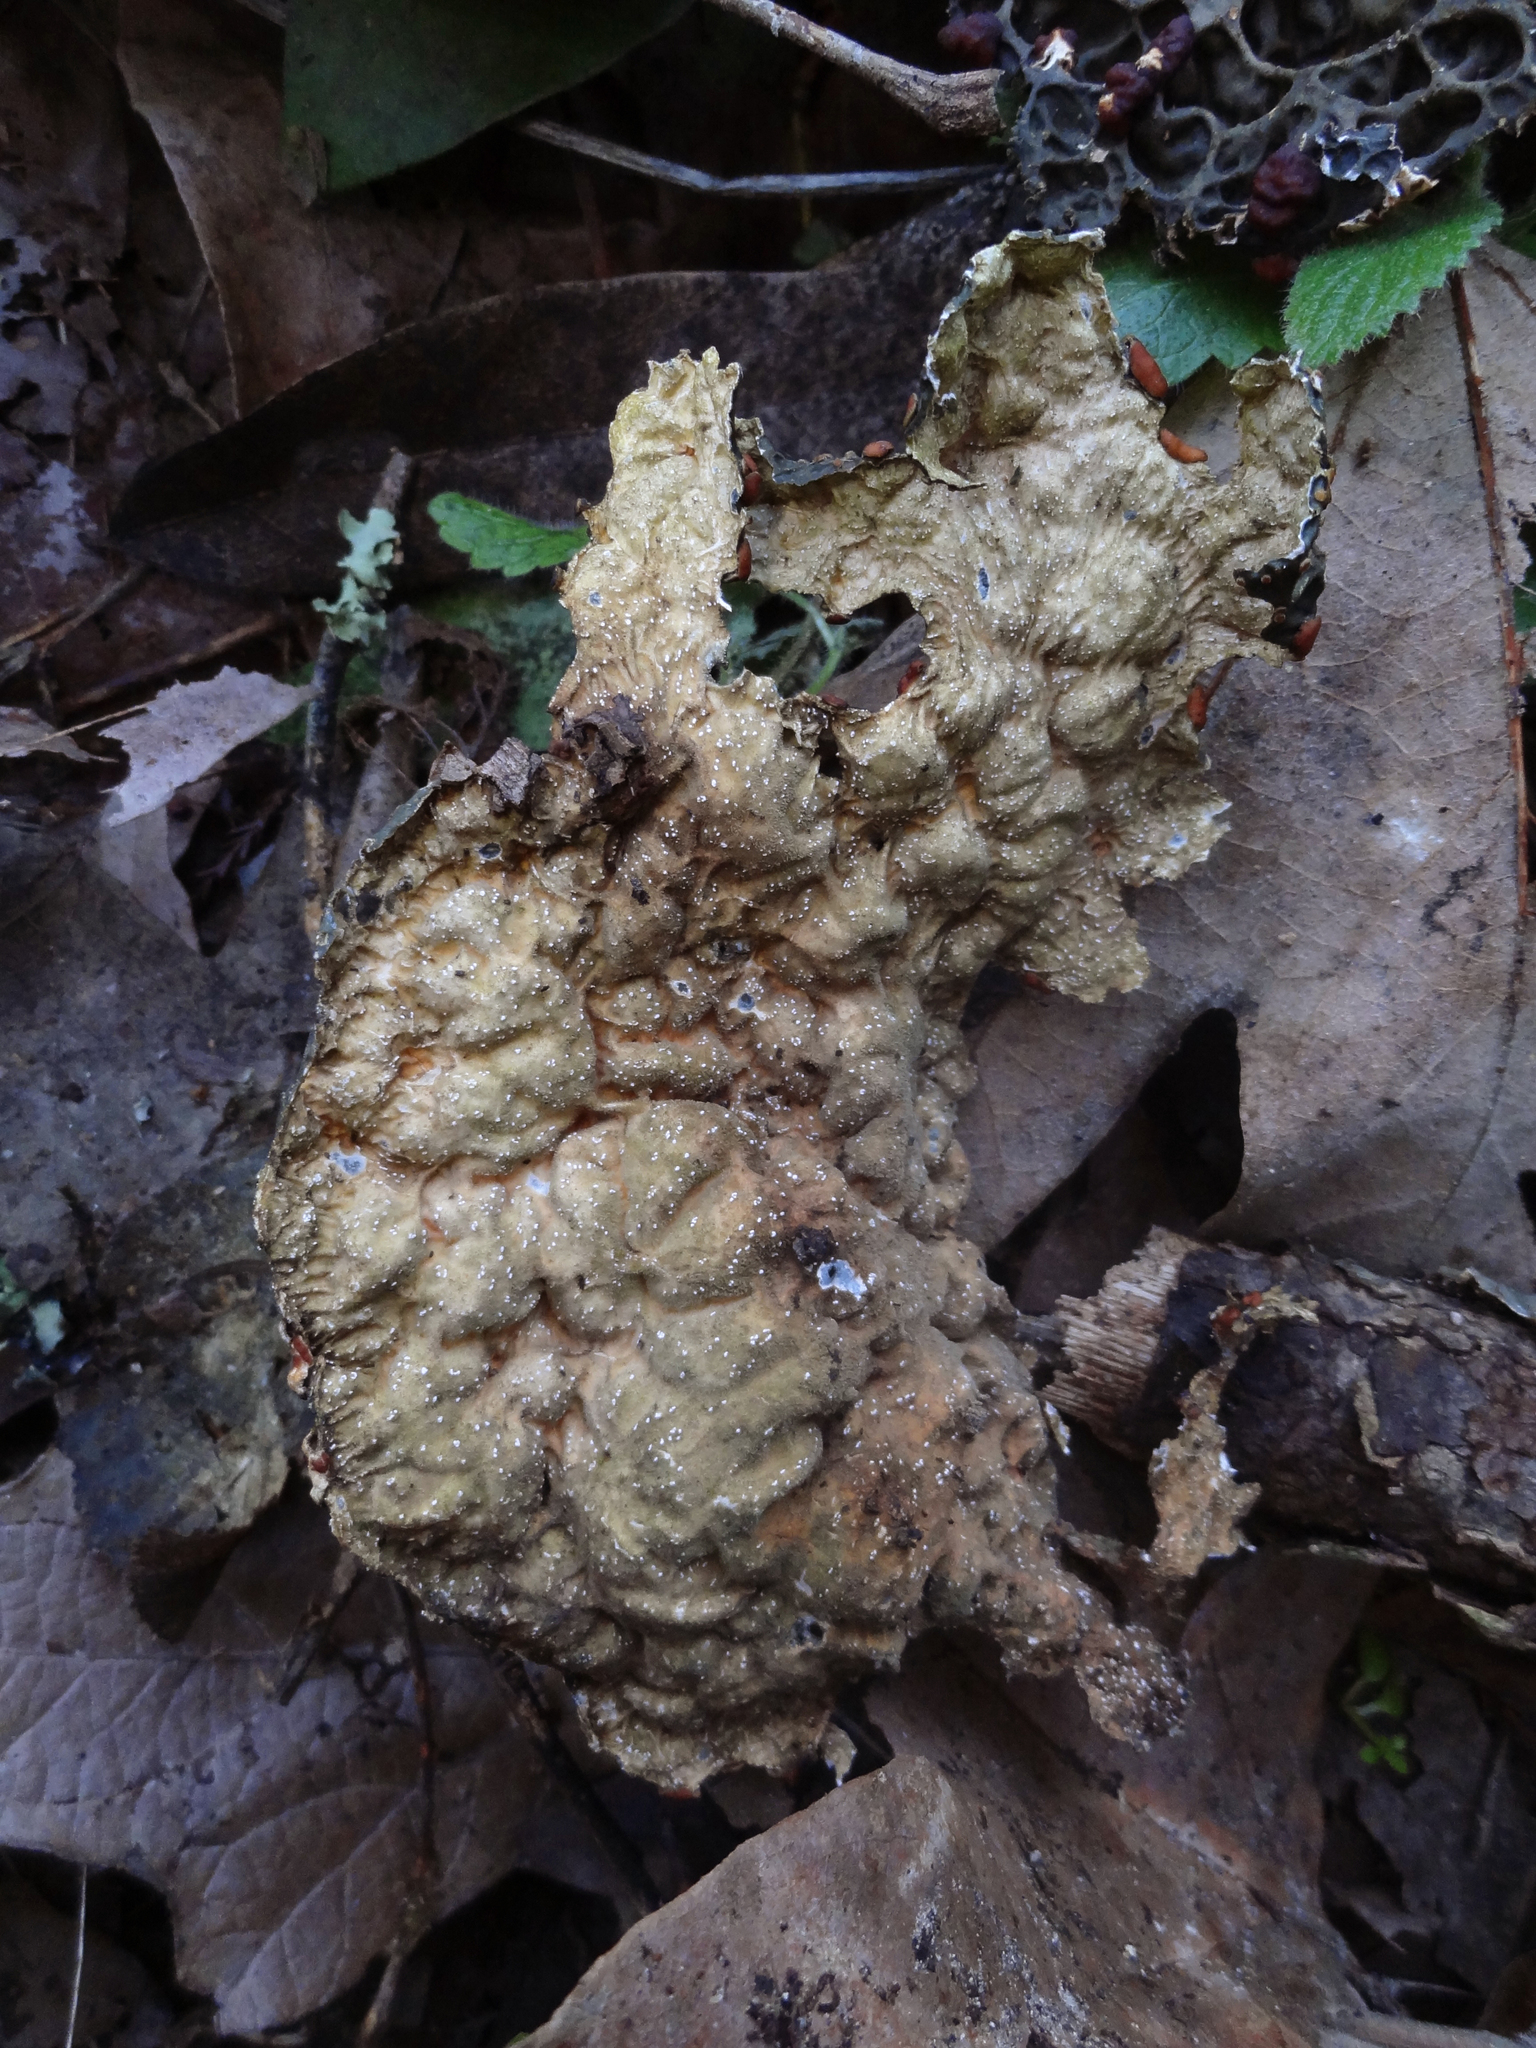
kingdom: Fungi
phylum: Ascomycota
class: Lecanoromycetes
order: Peltigerales
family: Lobariaceae
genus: Lobaria
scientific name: Lobaria anthraspis
